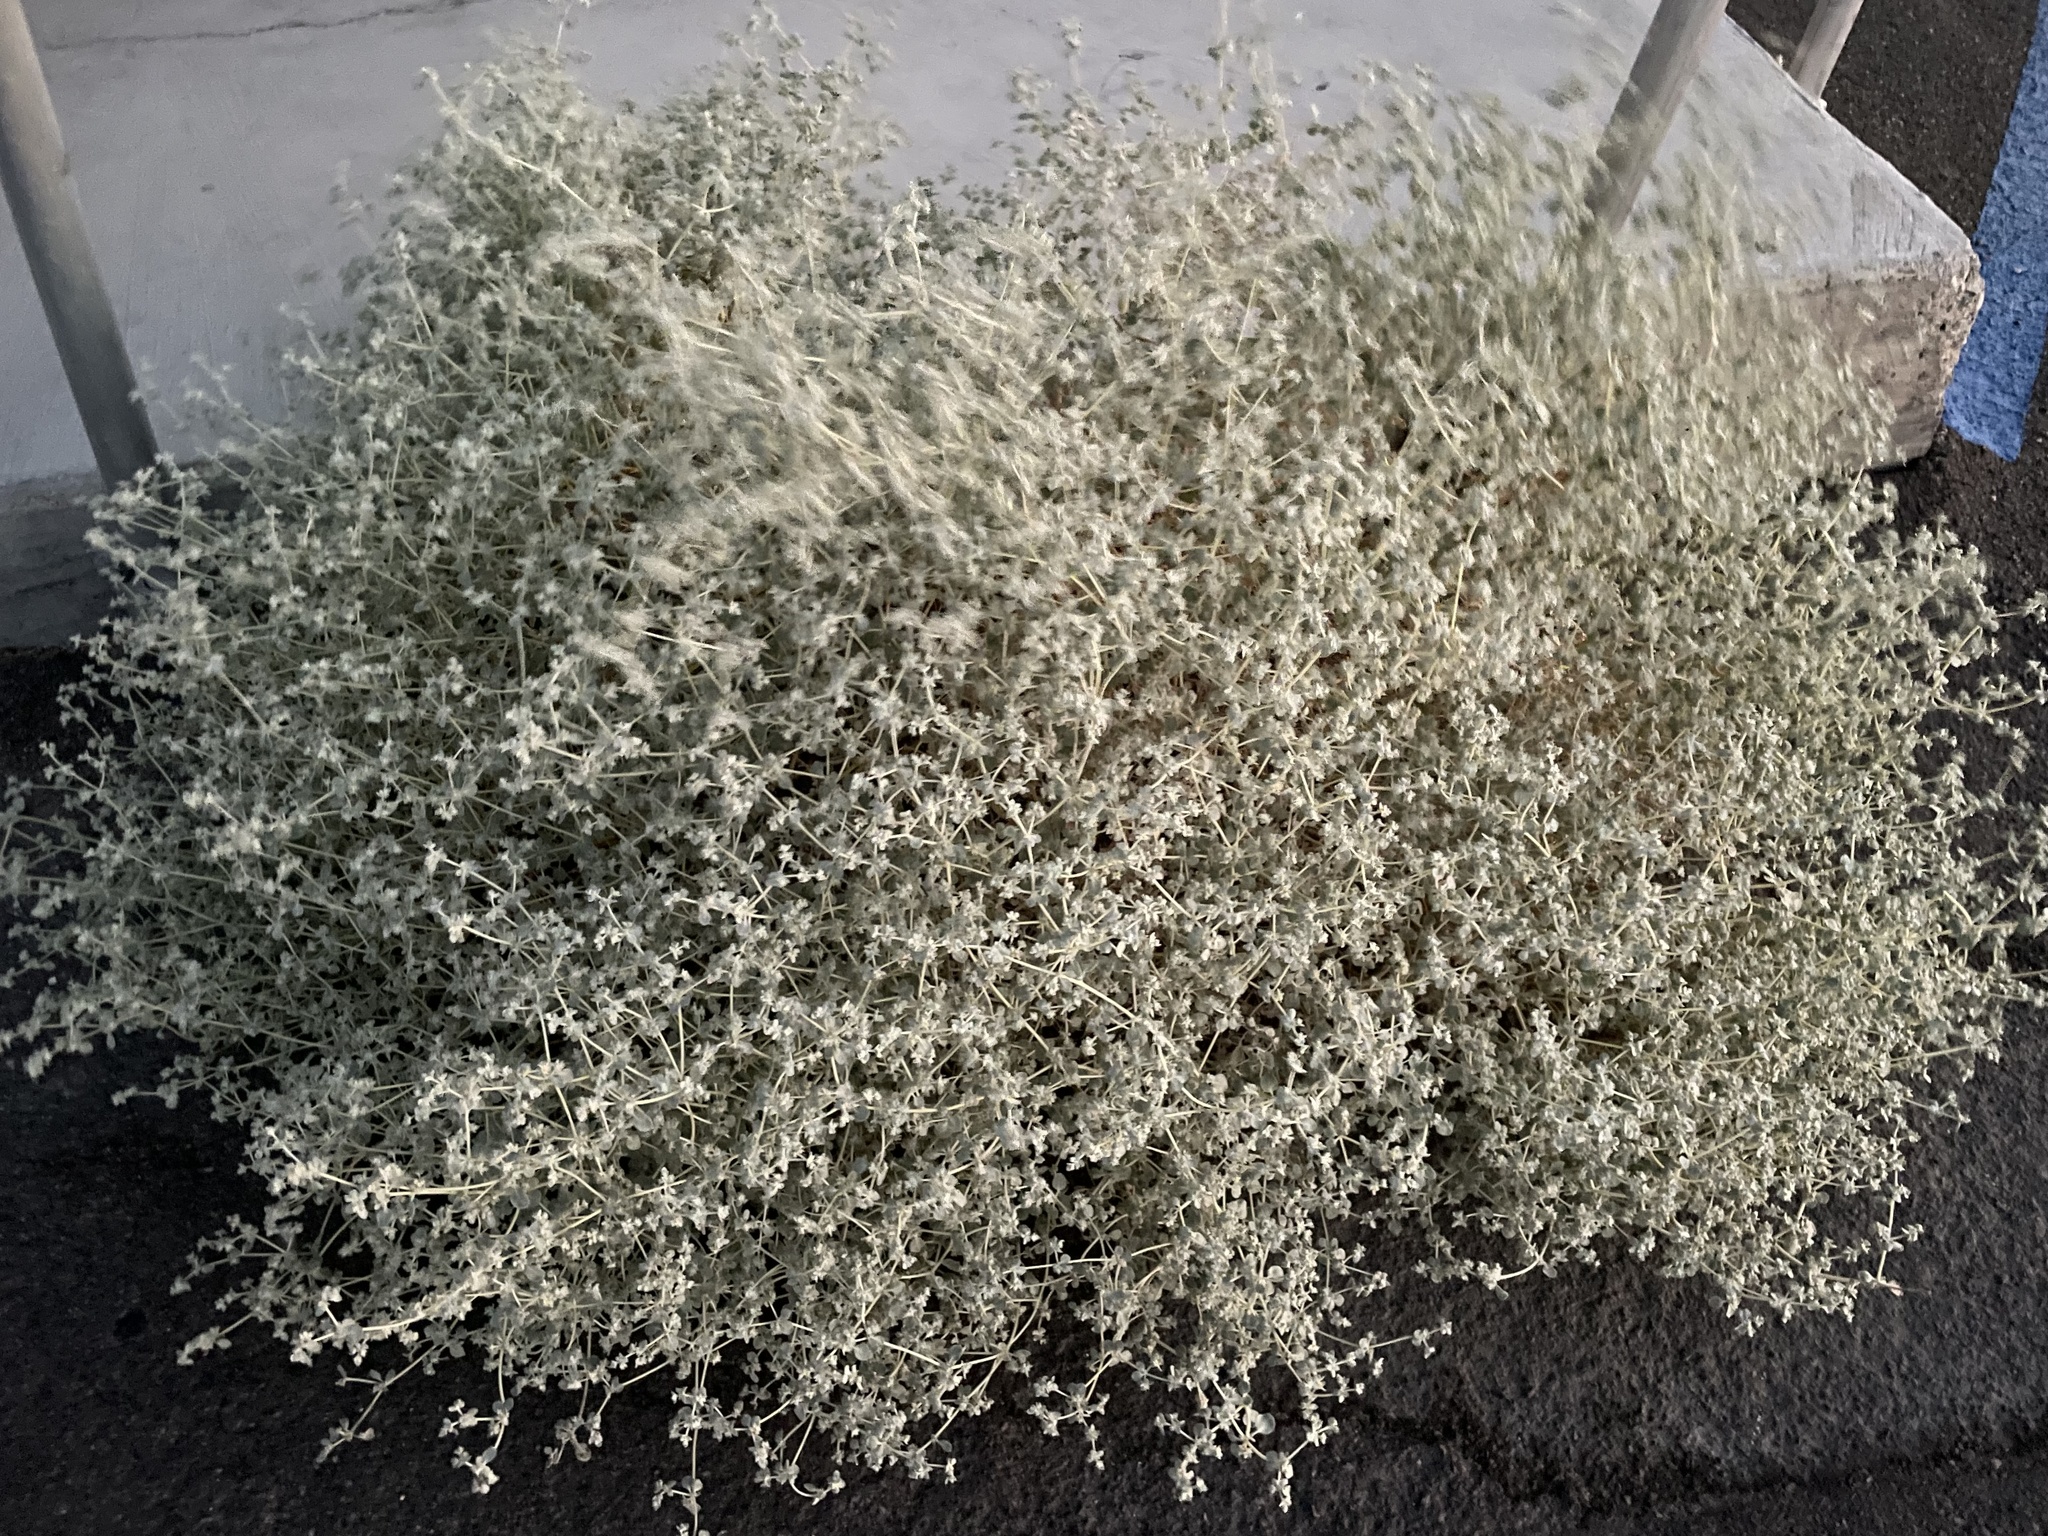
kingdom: Plantae
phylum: Tracheophyta
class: Magnoliopsida
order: Caryophyllales
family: Amaranthaceae
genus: Tidestromia
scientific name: Tidestromia suffruticosa
